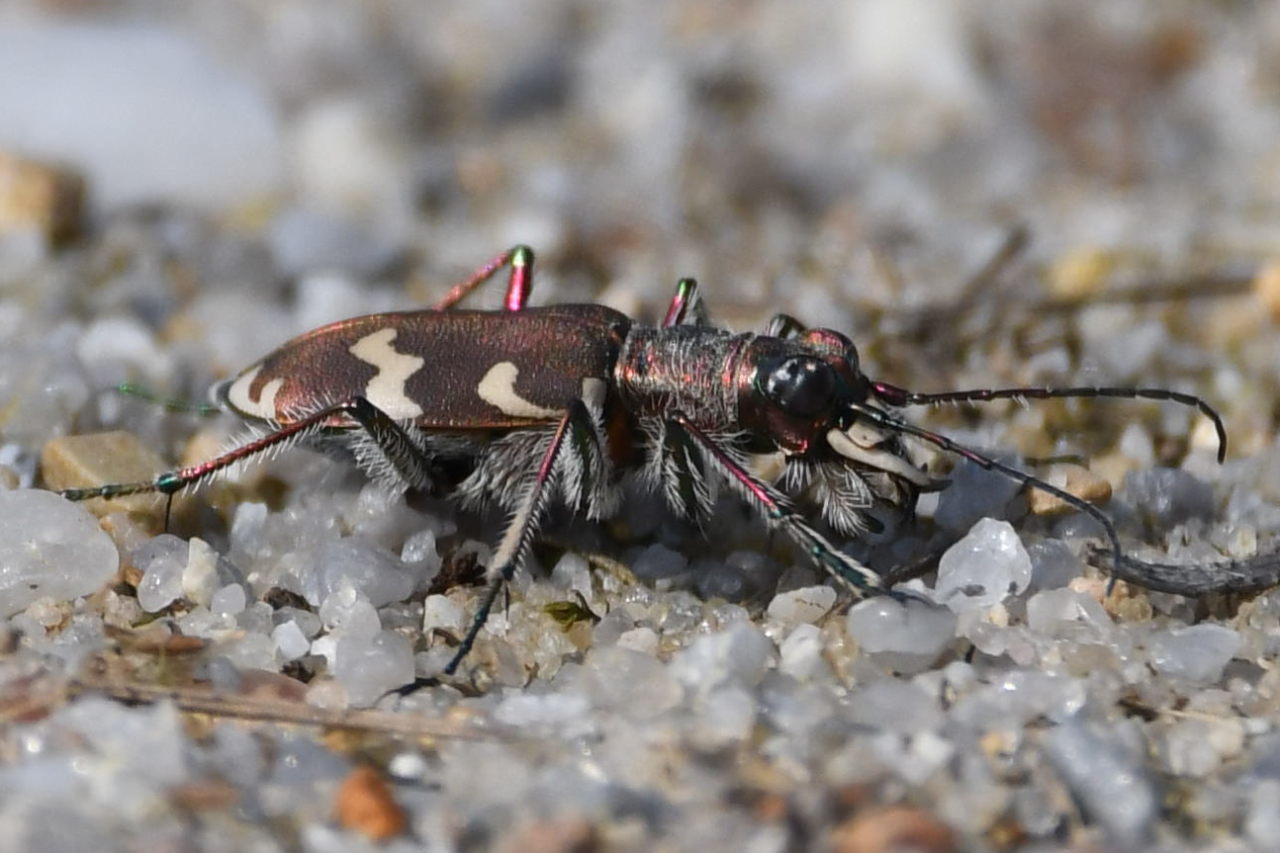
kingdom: Animalia
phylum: Arthropoda
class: Insecta
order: Coleoptera
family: Carabidae
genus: Cicindela
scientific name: Cicindela hybrida
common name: Northern dune tiger beetle
